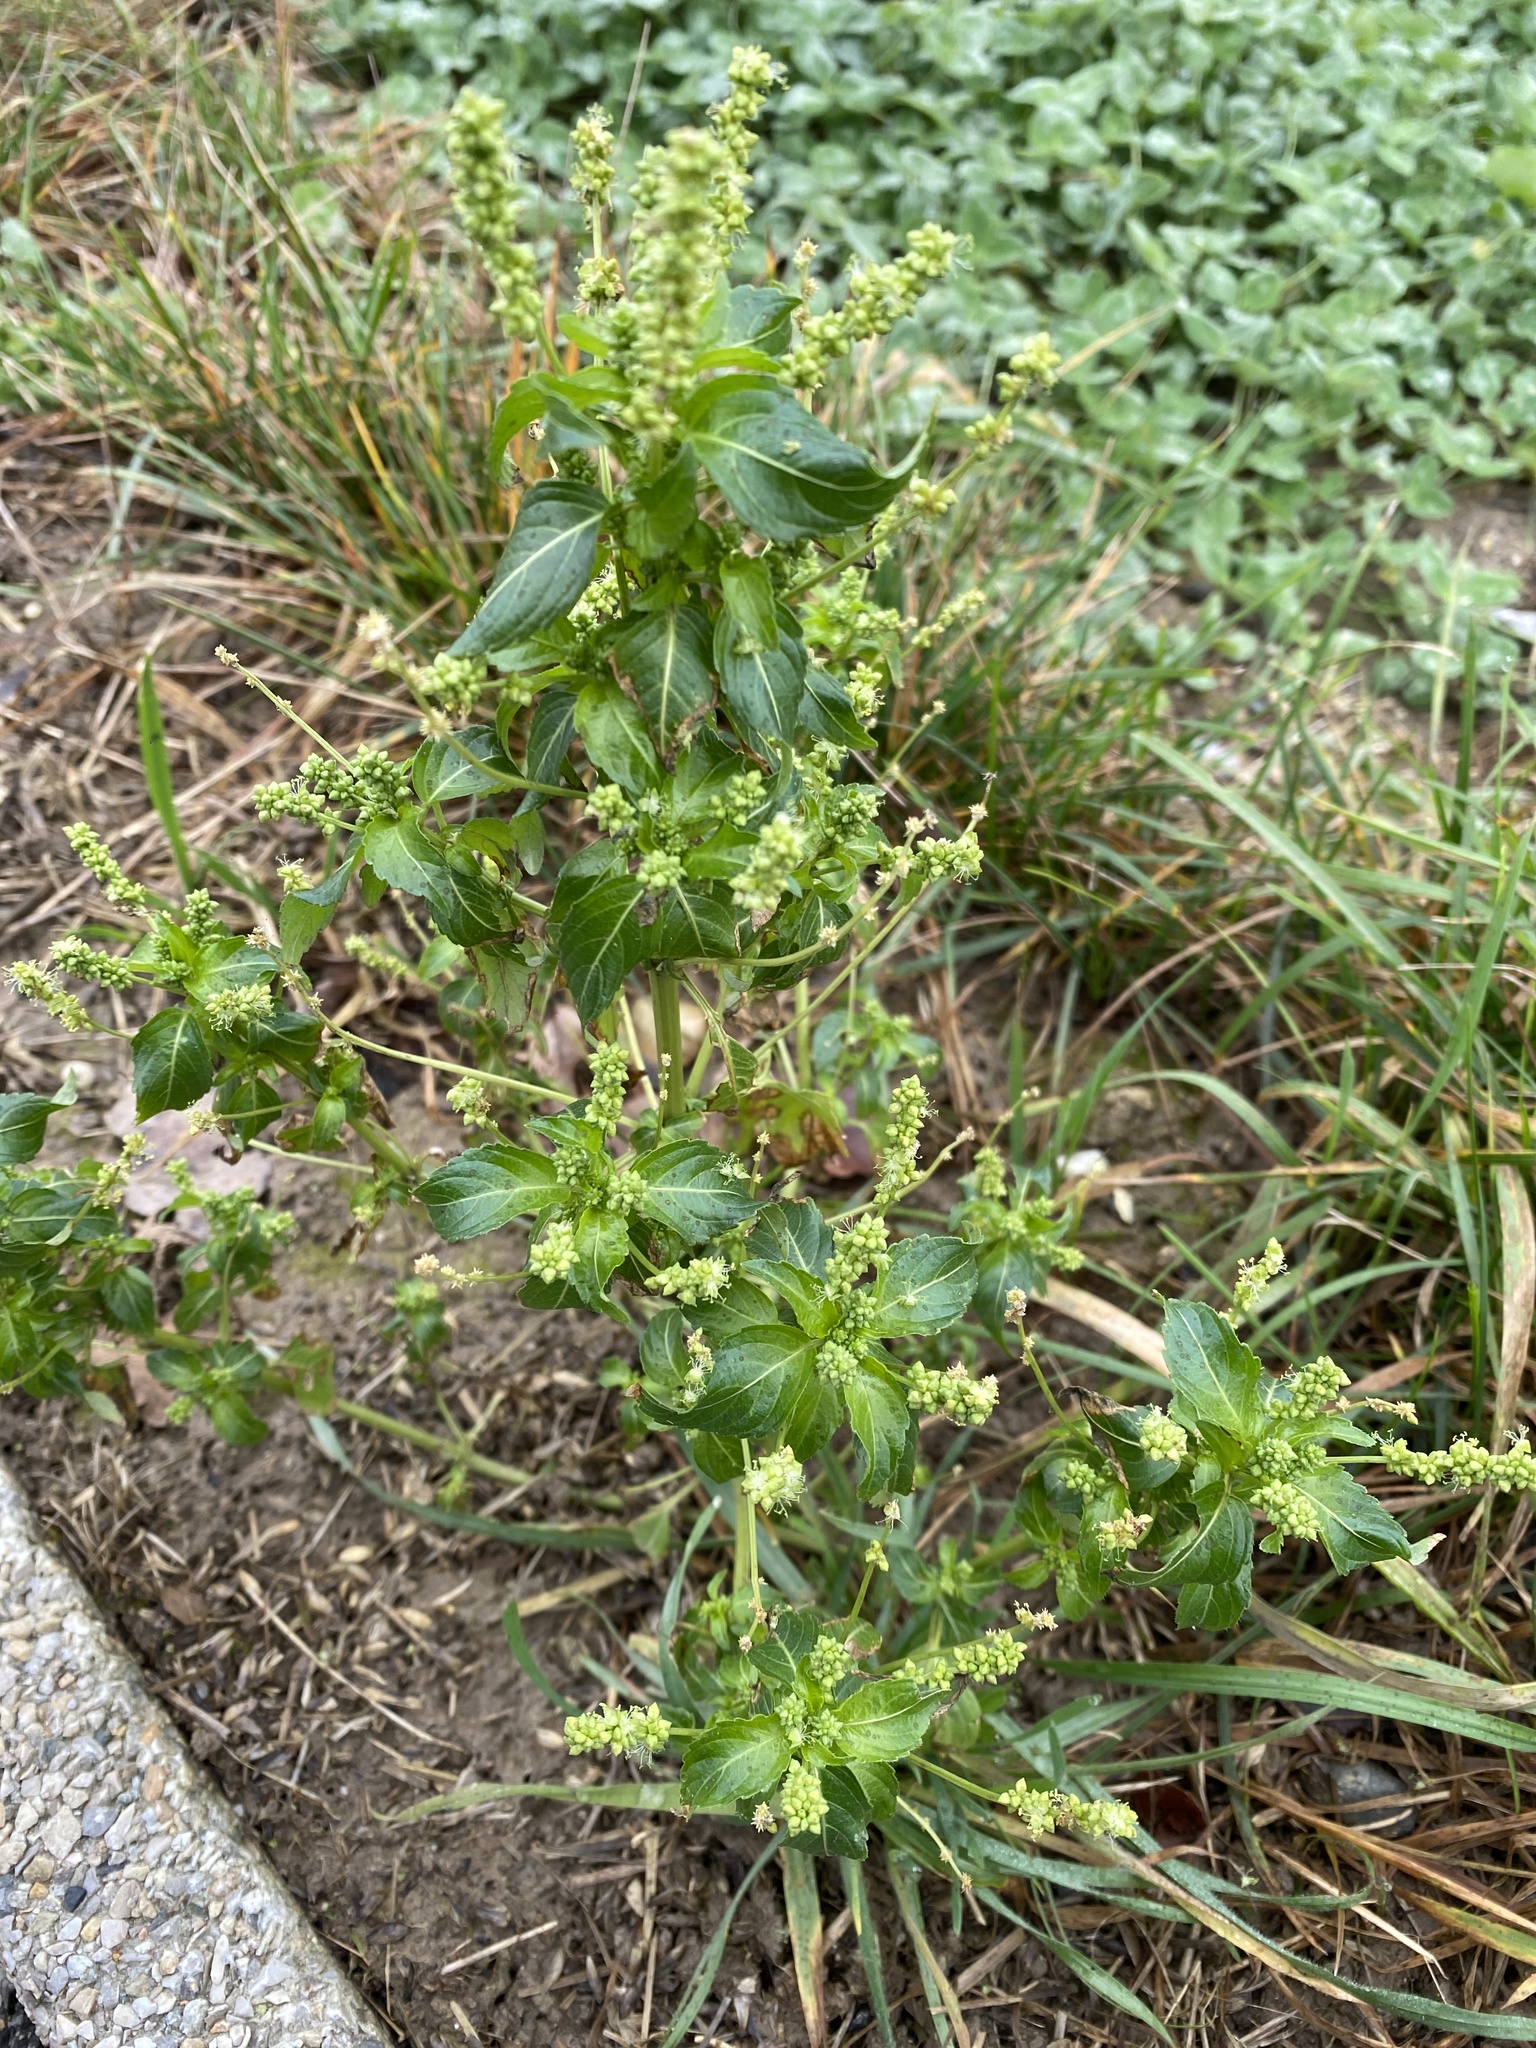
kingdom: Plantae
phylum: Tracheophyta
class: Magnoliopsida
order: Malpighiales
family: Euphorbiaceae
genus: Mercurialis
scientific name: Mercurialis annua
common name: Annual mercury
